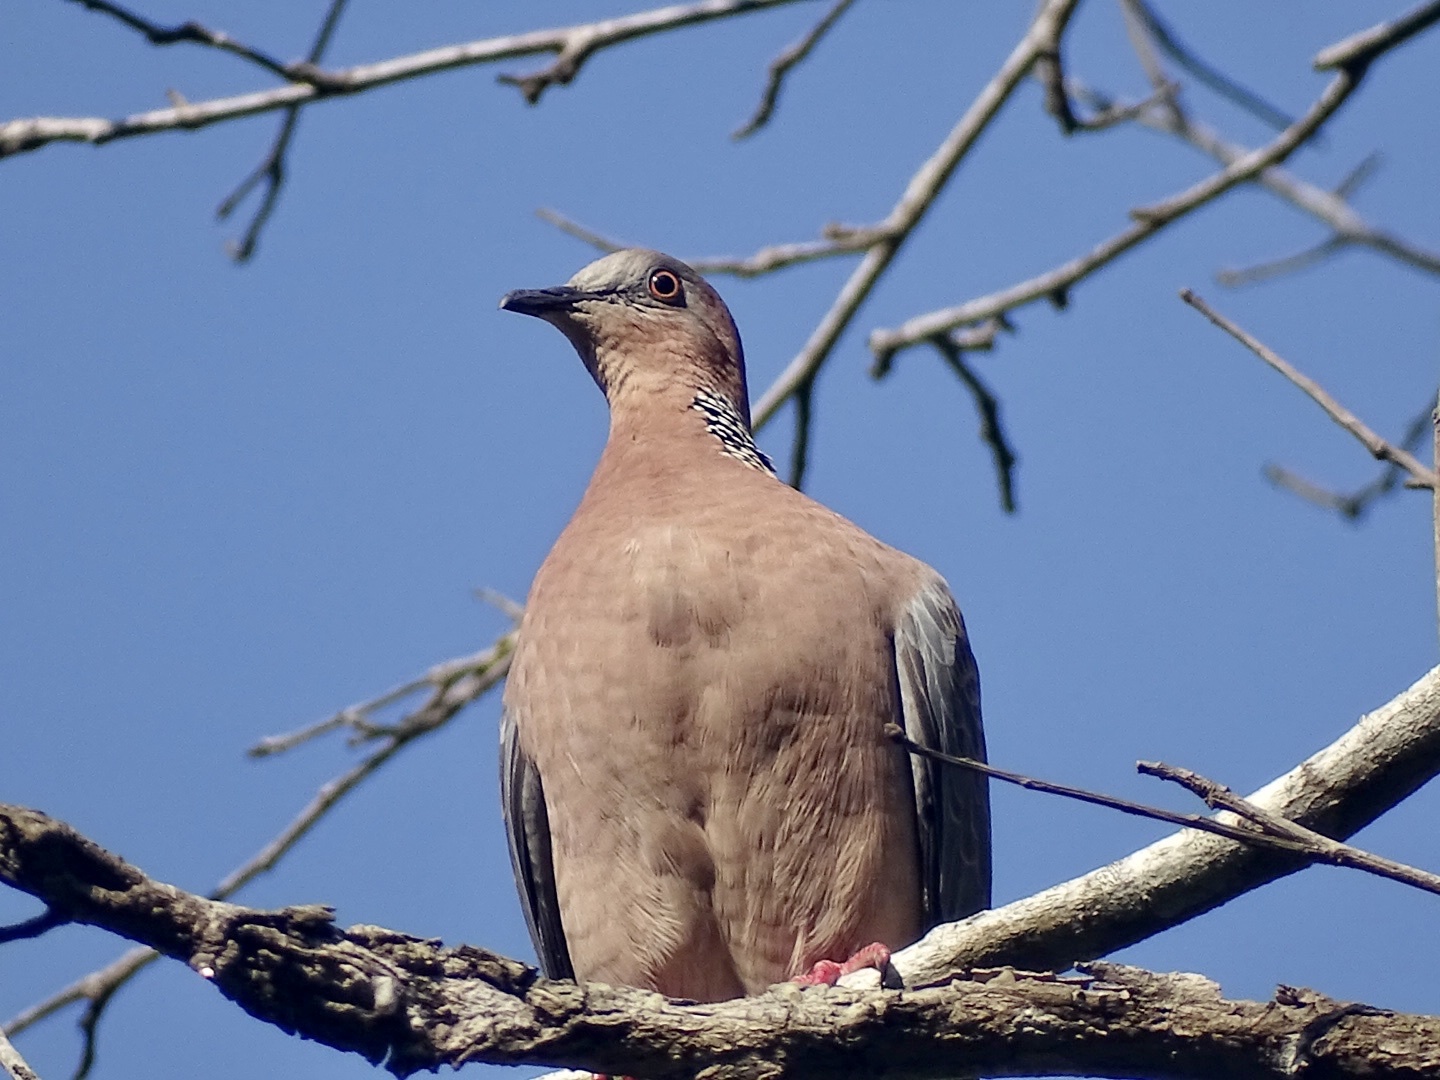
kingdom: Animalia
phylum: Chordata
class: Aves
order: Columbiformes
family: Columbidae
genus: Spilopelia
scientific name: Spilopelia chinensis
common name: Spotted dove
